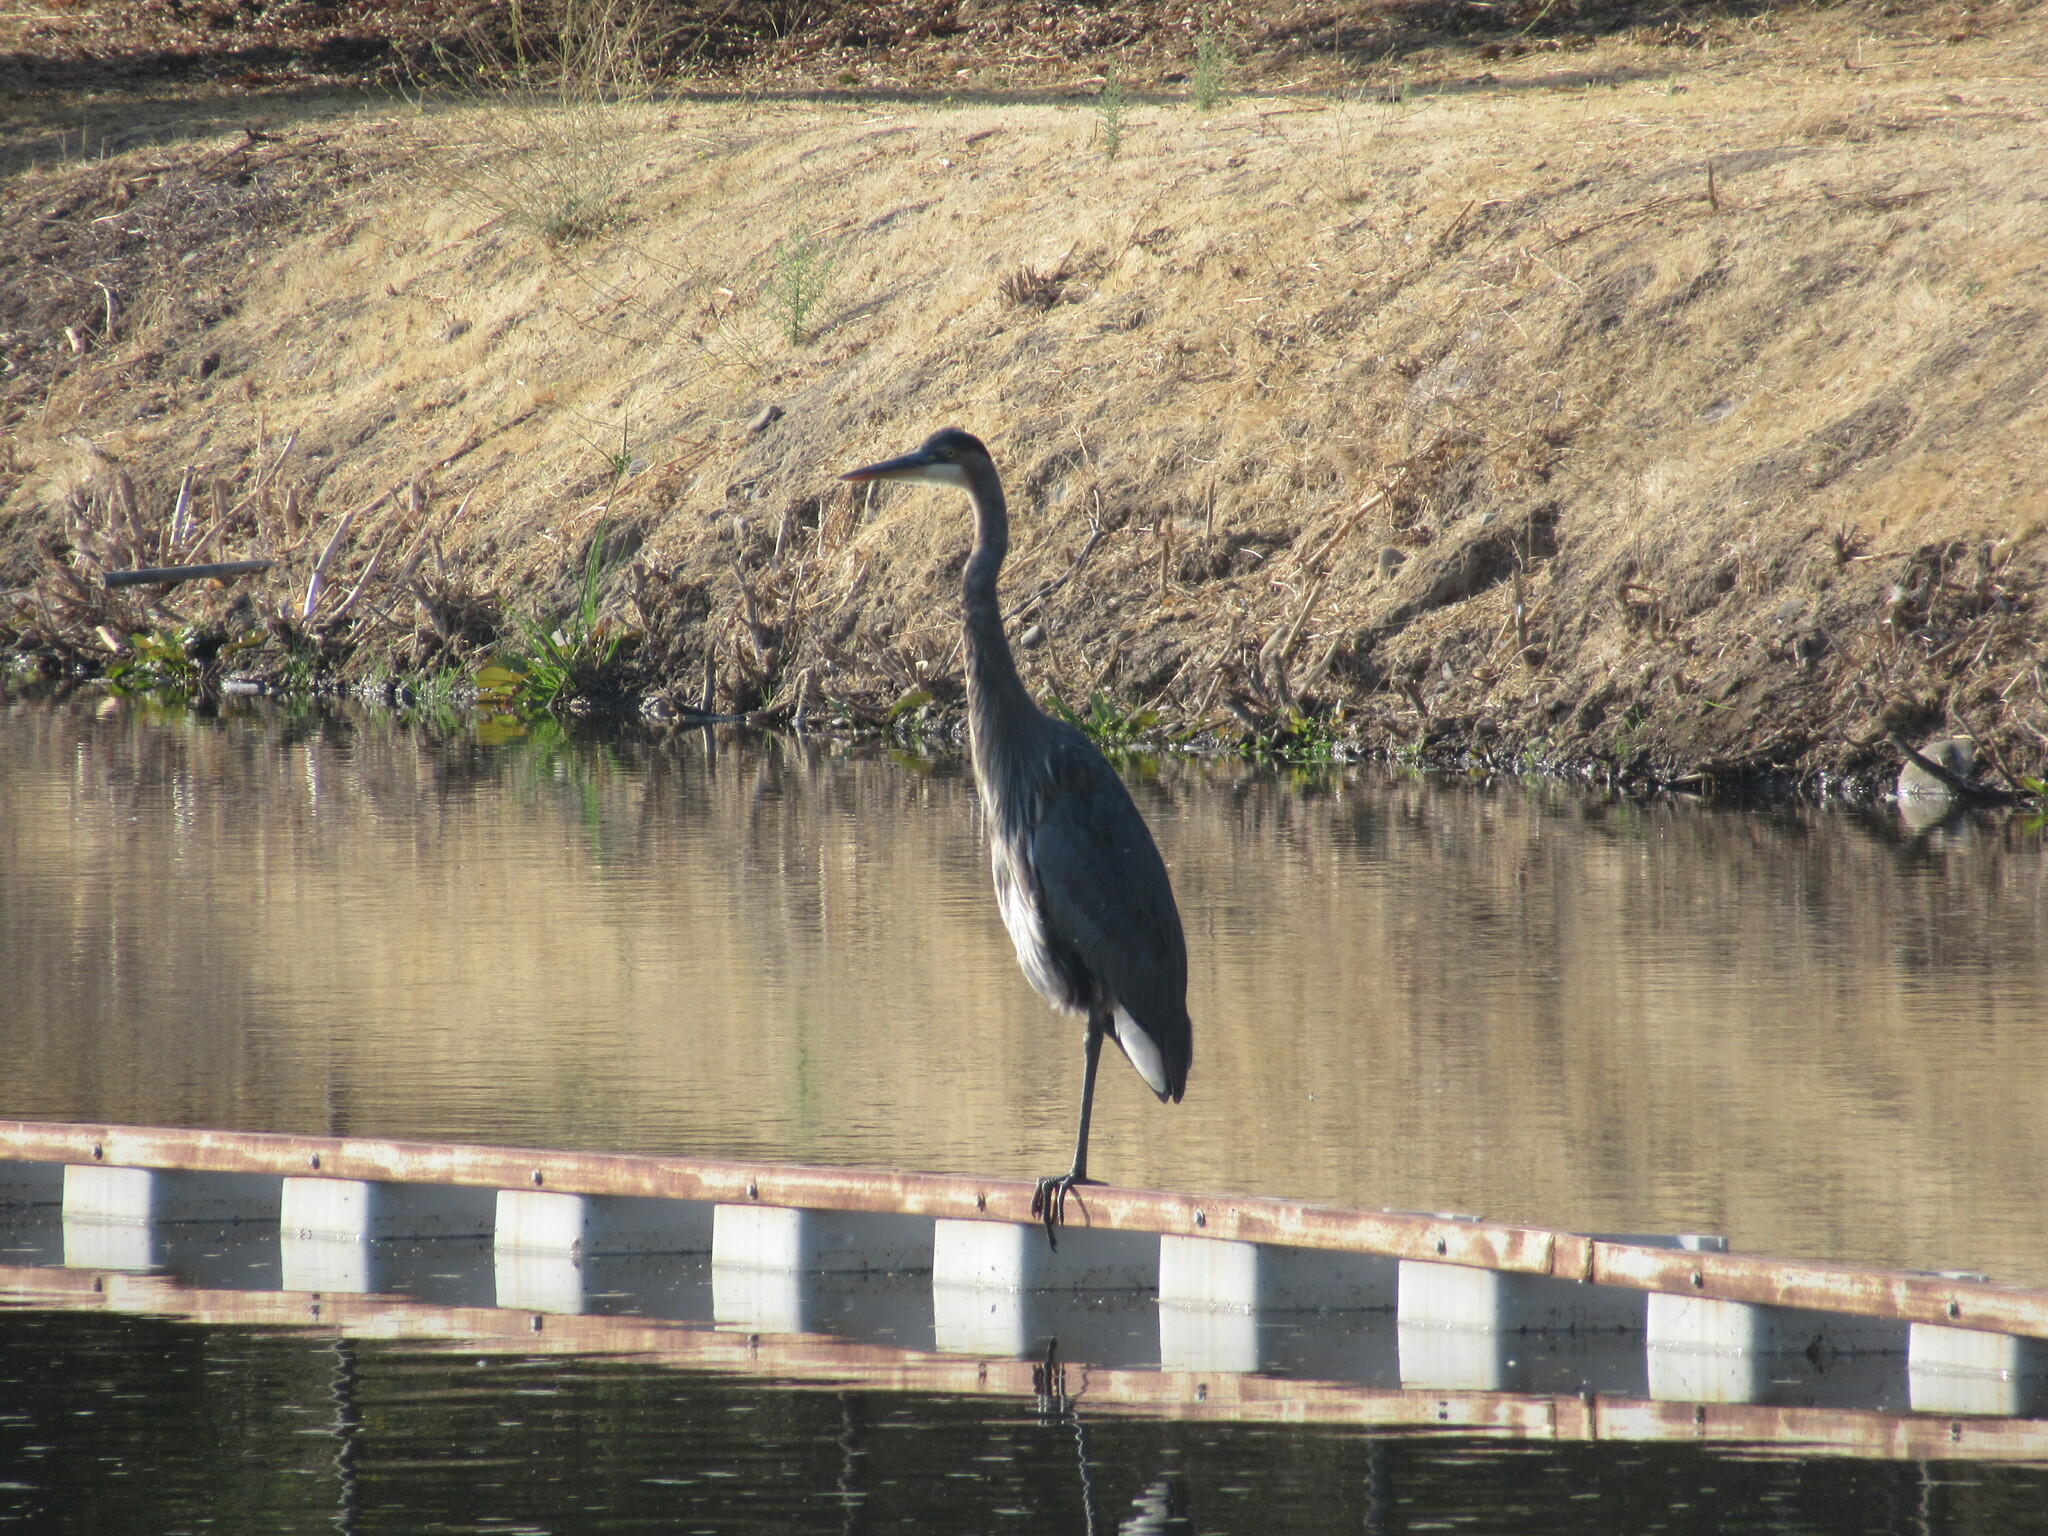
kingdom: Animalia
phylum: Chordata
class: Aves
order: Pelecaniformes
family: Ardeidae
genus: Ardea
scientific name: Ardea herodias
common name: Great blue heron
